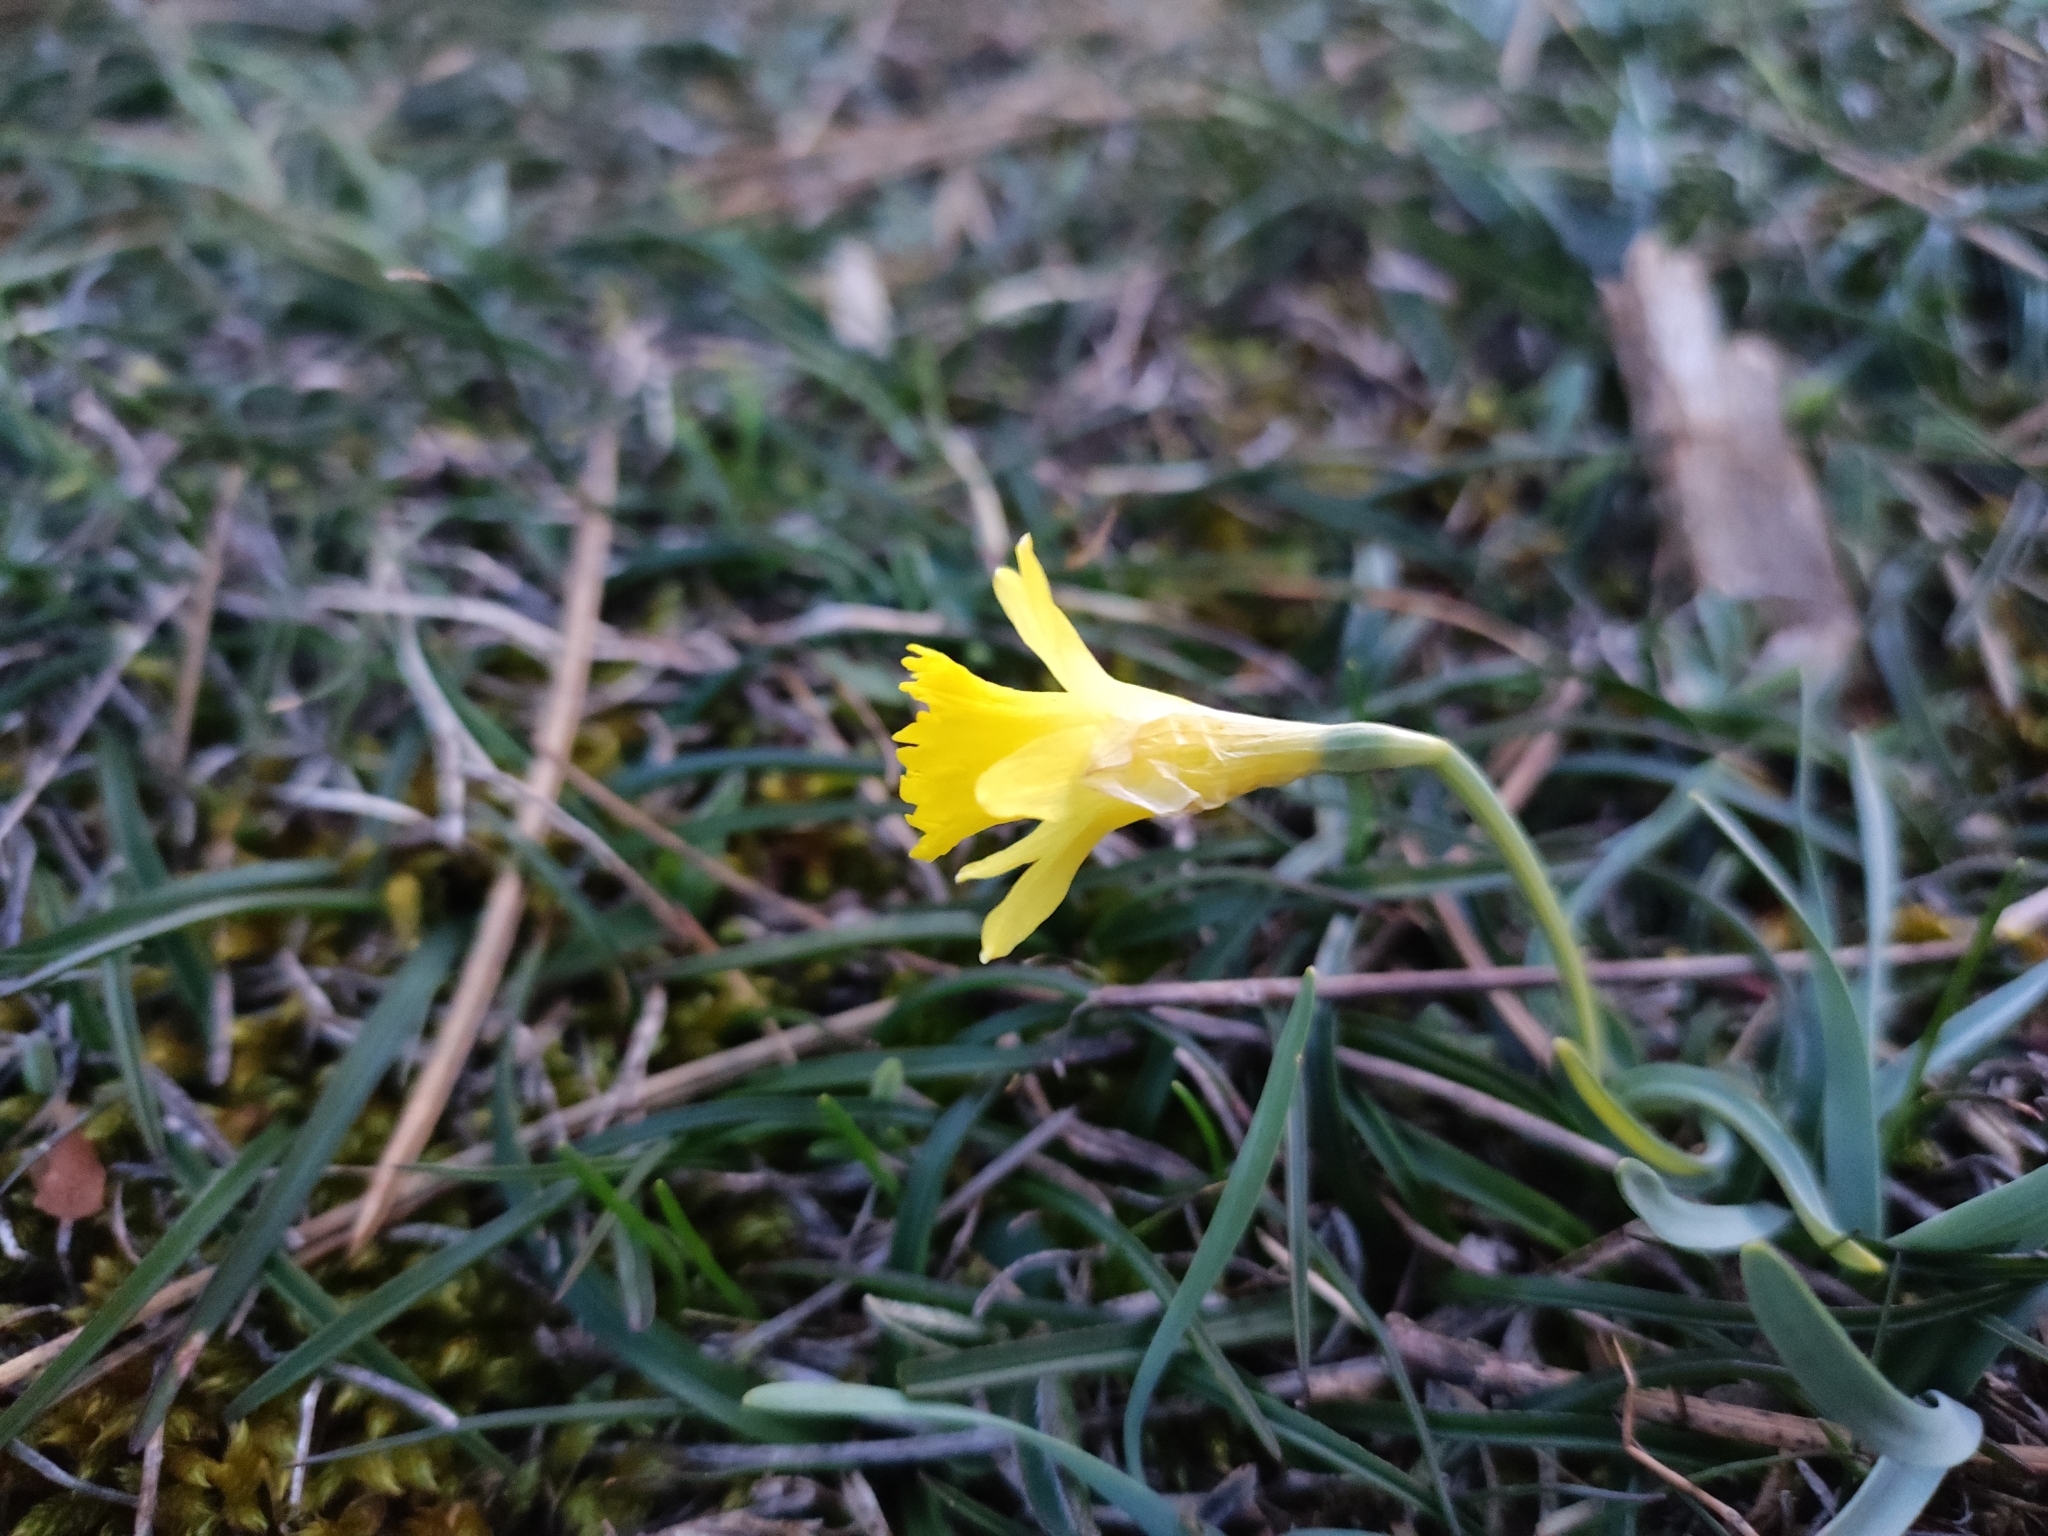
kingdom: Plantae
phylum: Tracheophyta
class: Liliopsida
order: Asparagales
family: Amaryllidaceae
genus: Narcissus
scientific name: Narcissus minor
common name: Lesser daffodil
